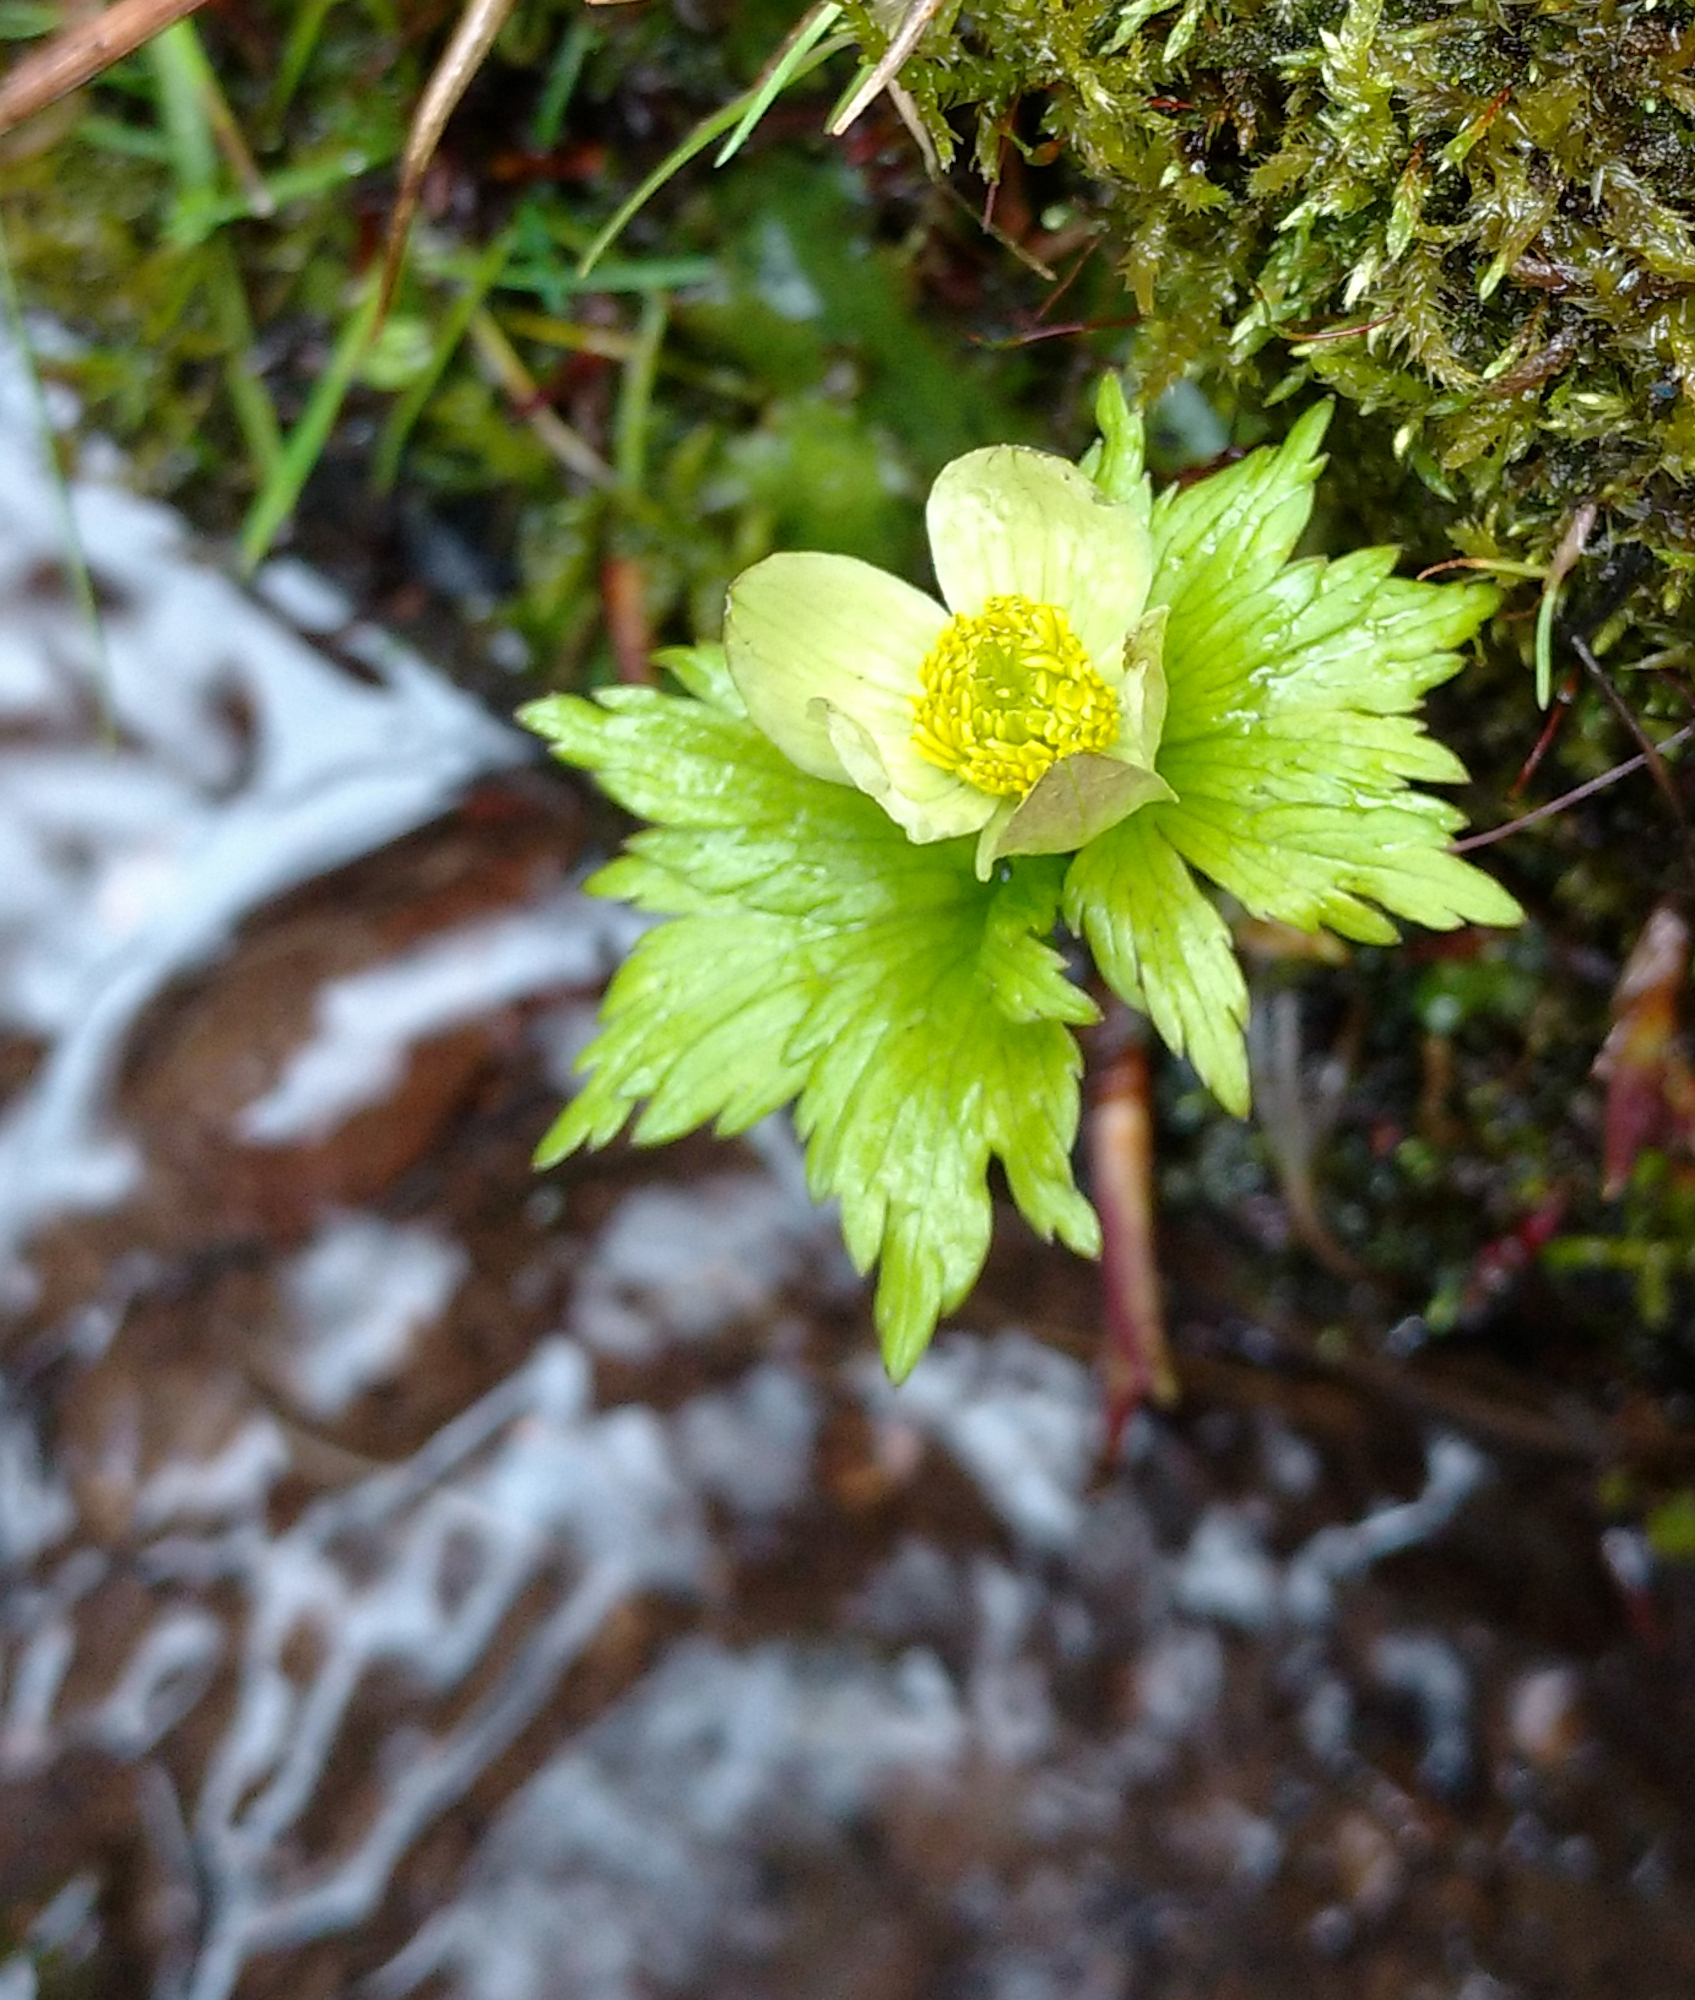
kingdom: Plantae
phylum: Tracheophyta
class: Magnoliopsida
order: Ranunculales
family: Ranunculaceae
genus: Trollius
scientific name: Trollius laxus
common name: American globeflower
